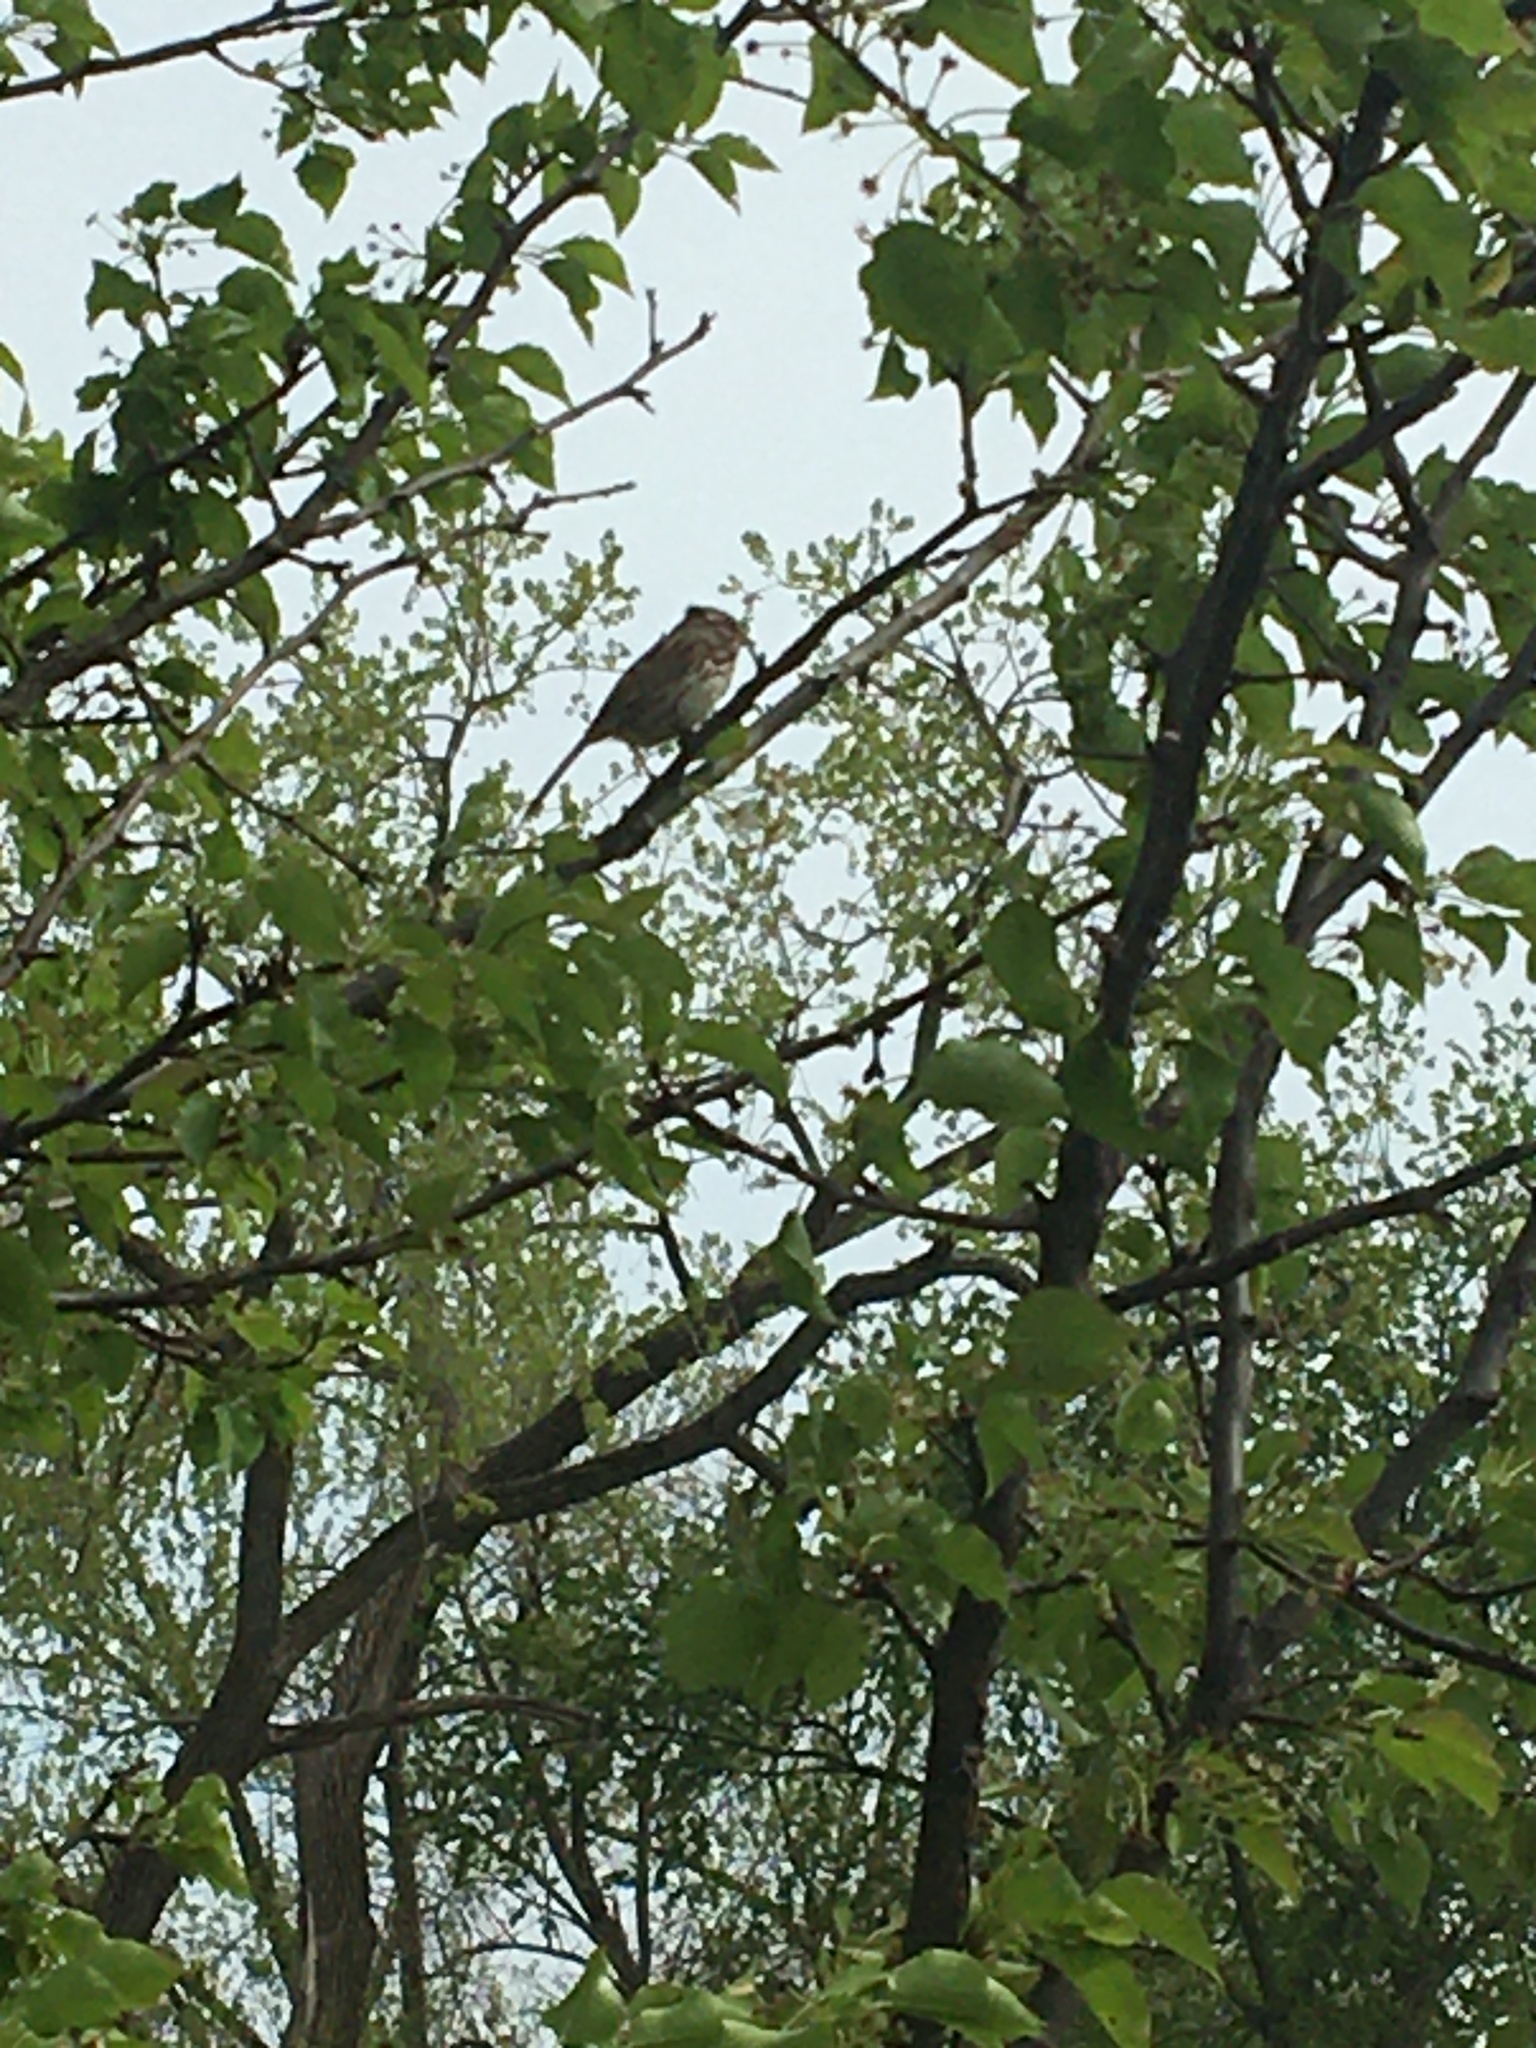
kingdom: Animalia
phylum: Chordata
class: Aves
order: Passeriformes
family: Passerellidae
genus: Melospiza
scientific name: Melospiza melodia
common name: Song sparrow
